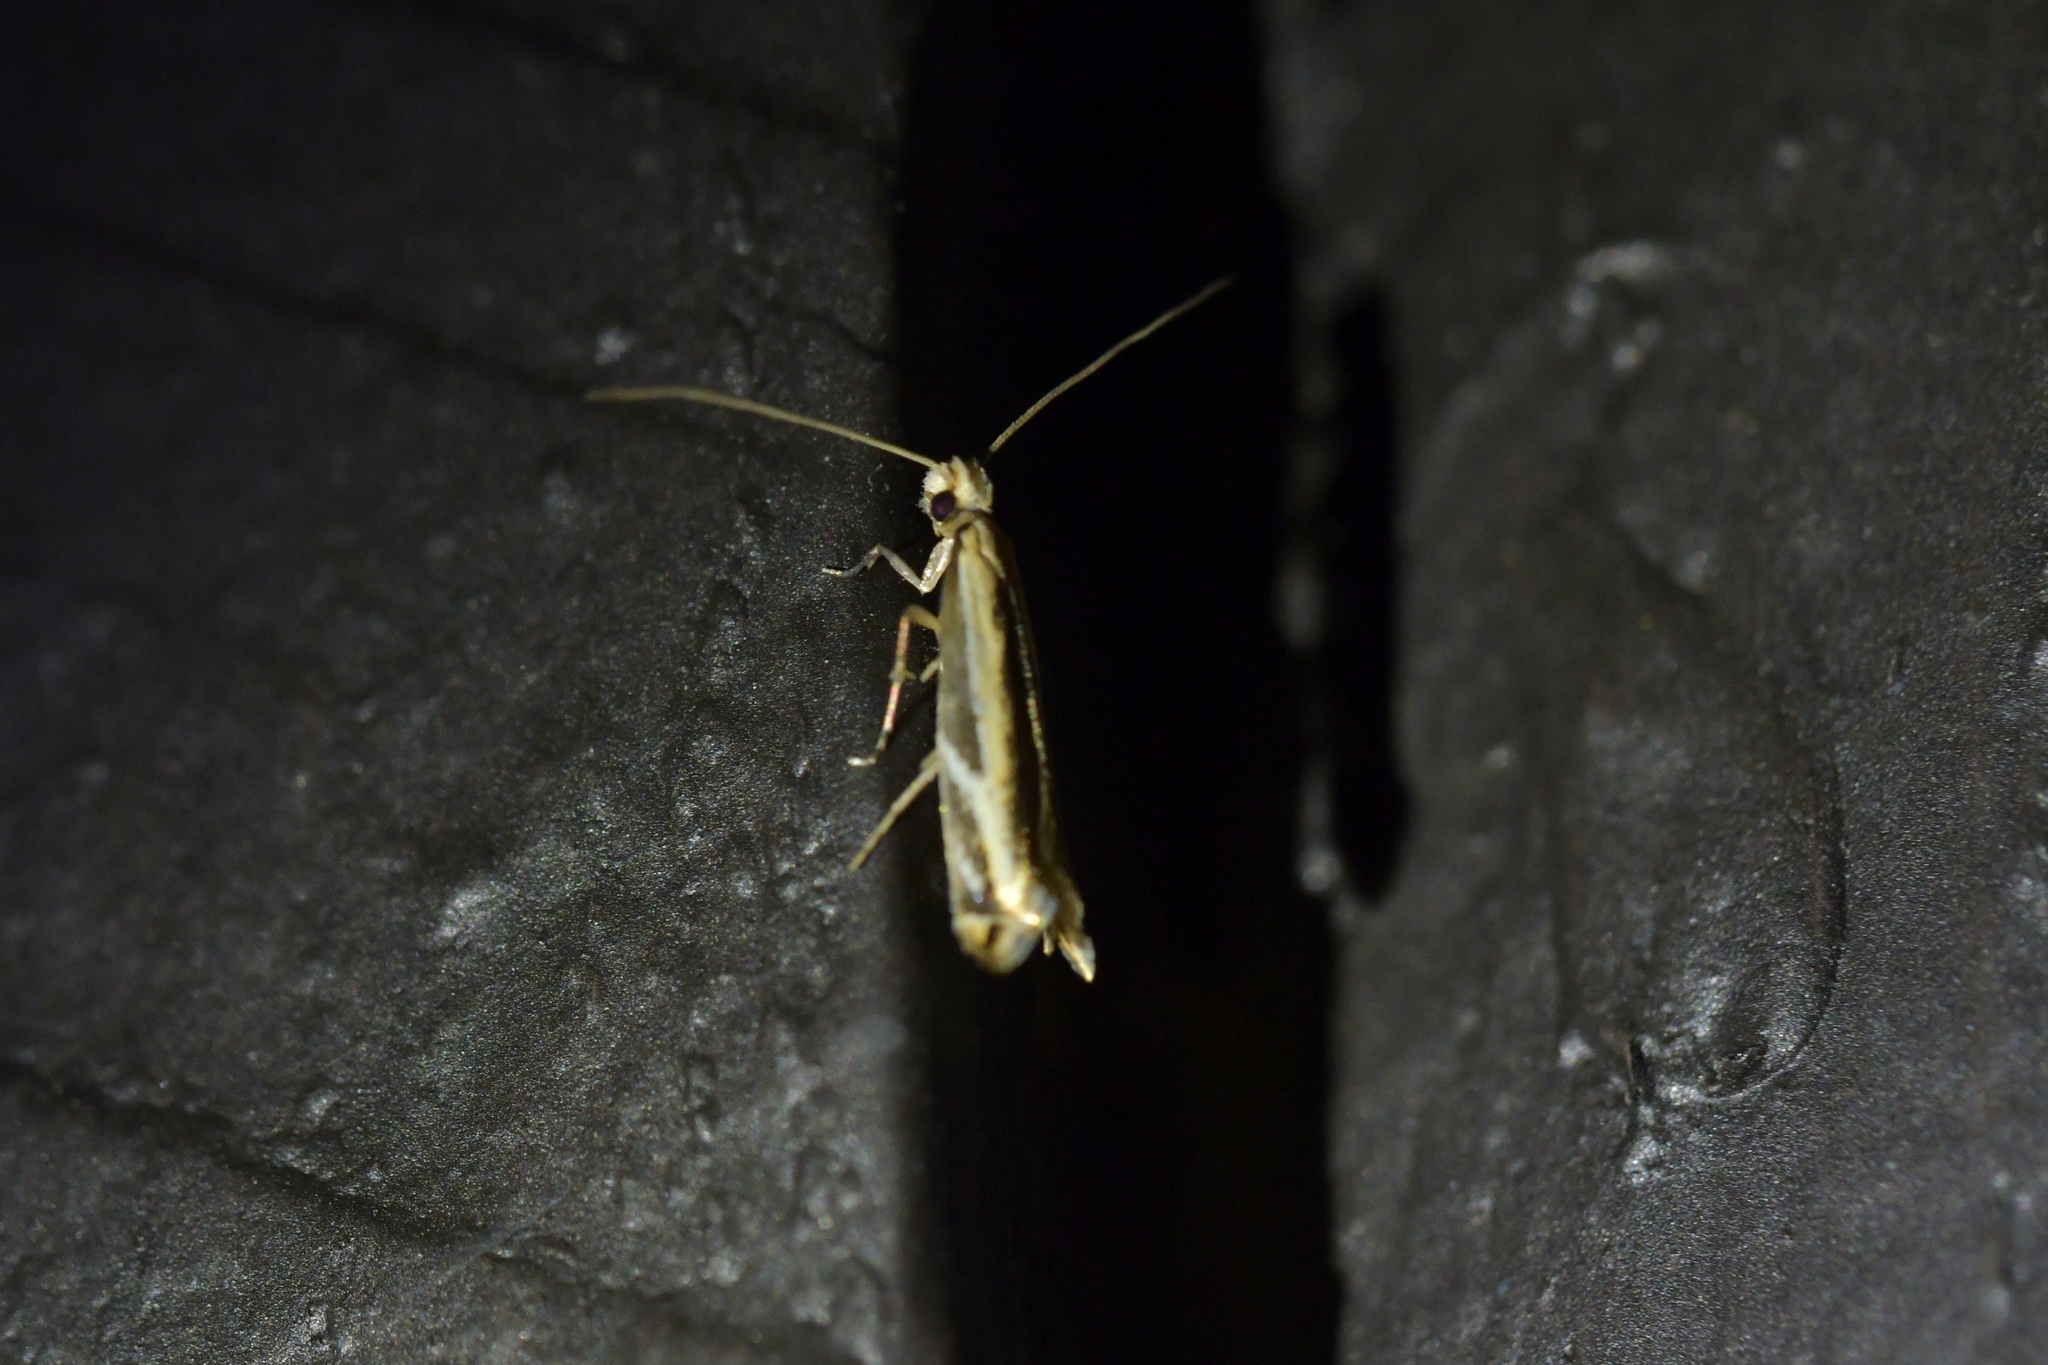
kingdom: Animalia
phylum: Arthropoda
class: Insecta
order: Lepidoptera
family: Tineidae
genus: Erechthias
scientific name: Erechthias terminella
